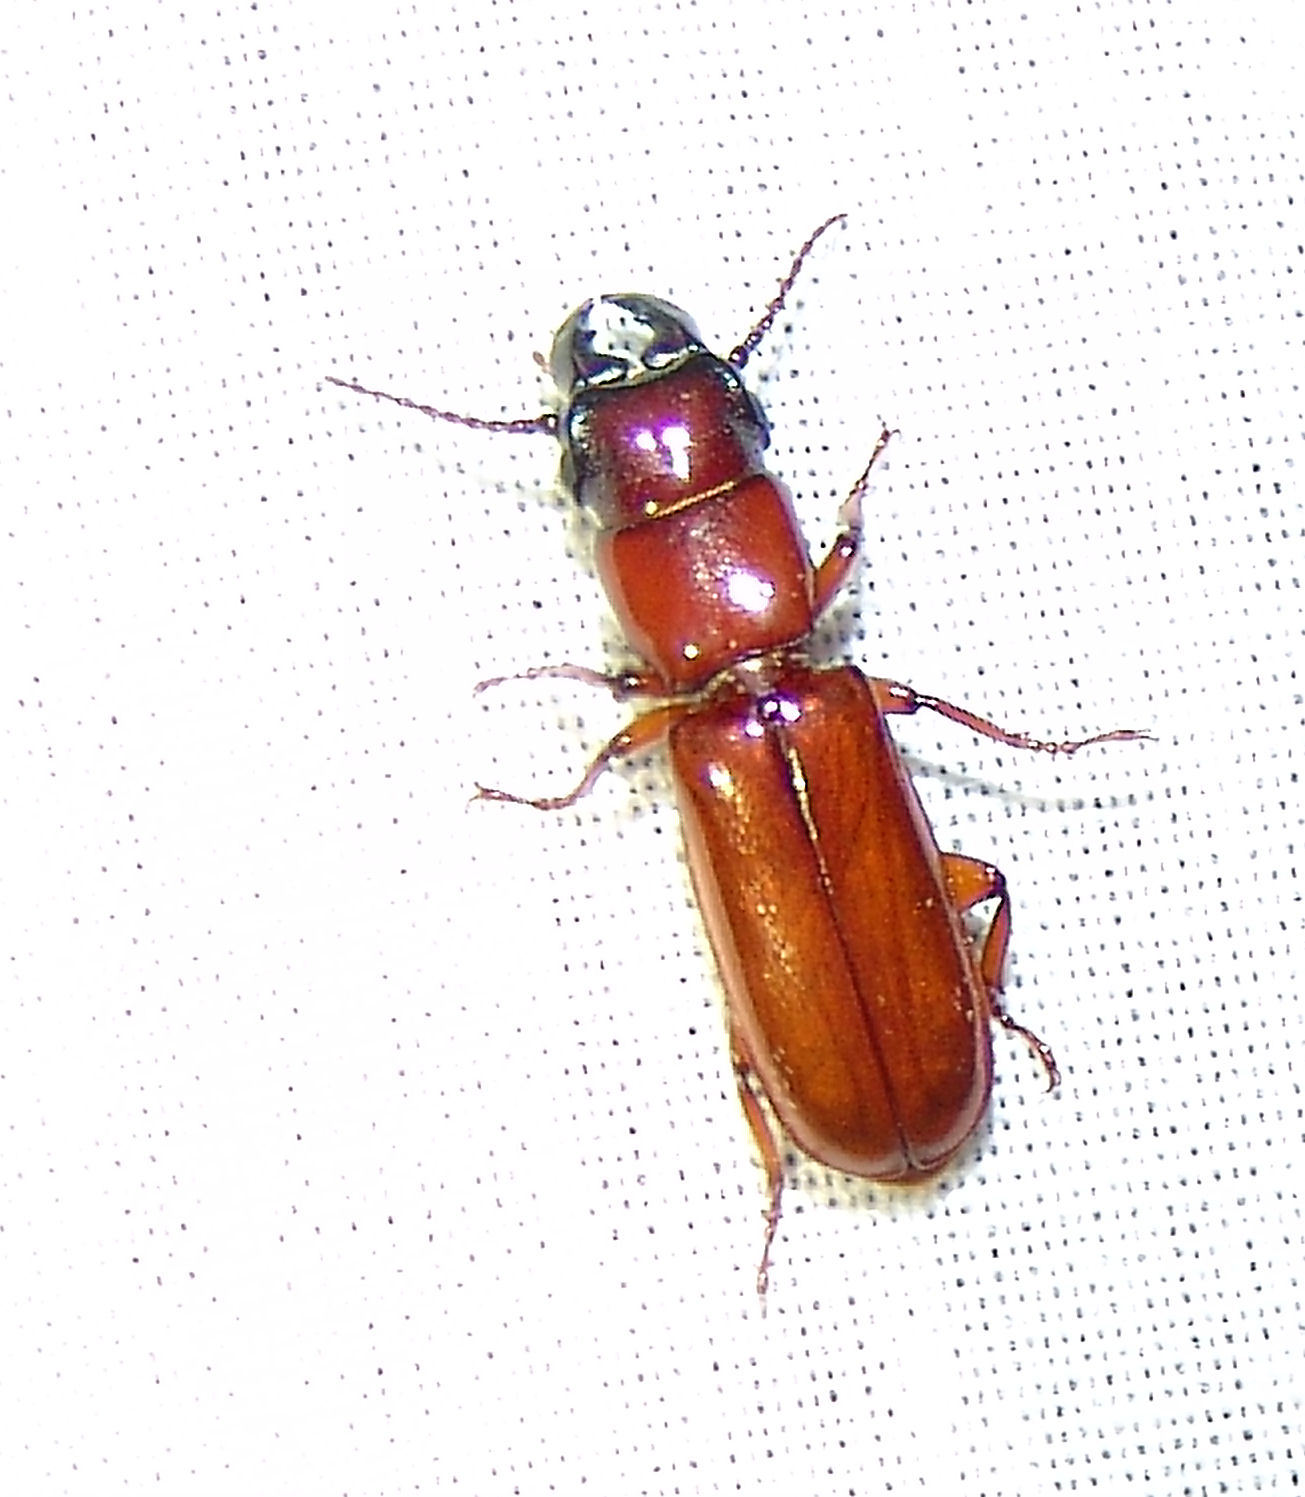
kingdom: Animalia
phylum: Arthropoda
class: Insecta
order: Coleoptera
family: Cerambycidae
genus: Parandra
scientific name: Parandra polita
